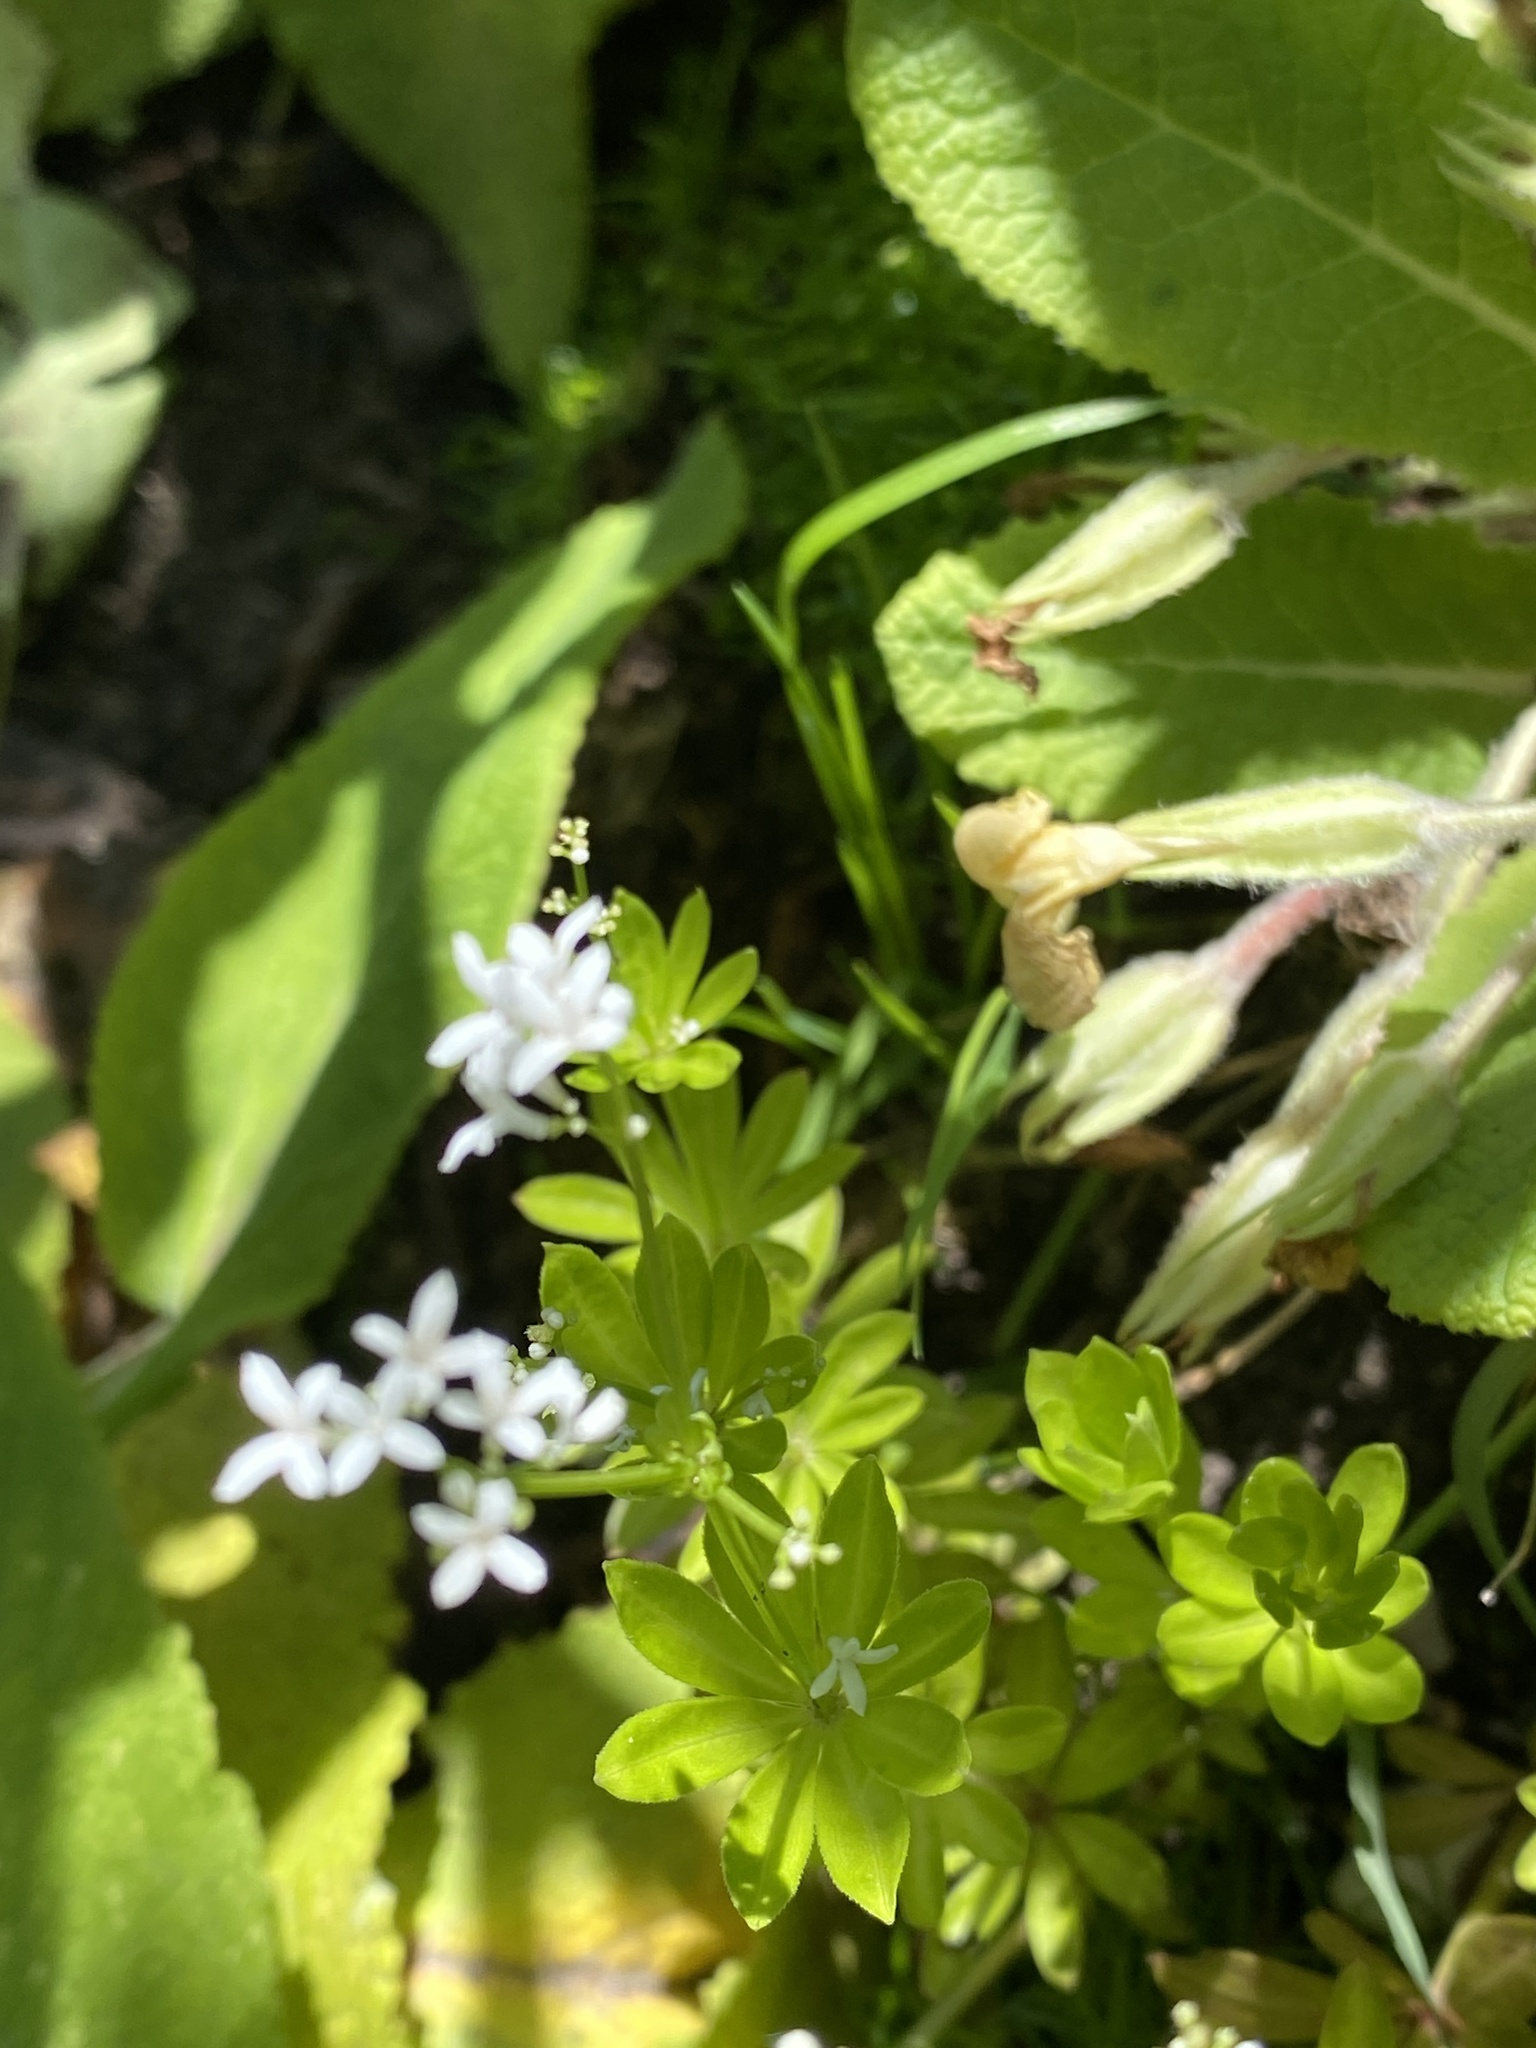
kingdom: Plantae
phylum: Tracheophyta
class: Magnoliopsida
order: Gentianales
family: Rubiaceae
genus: Galium
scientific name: Galium odoratum
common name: Sweet woodruff
